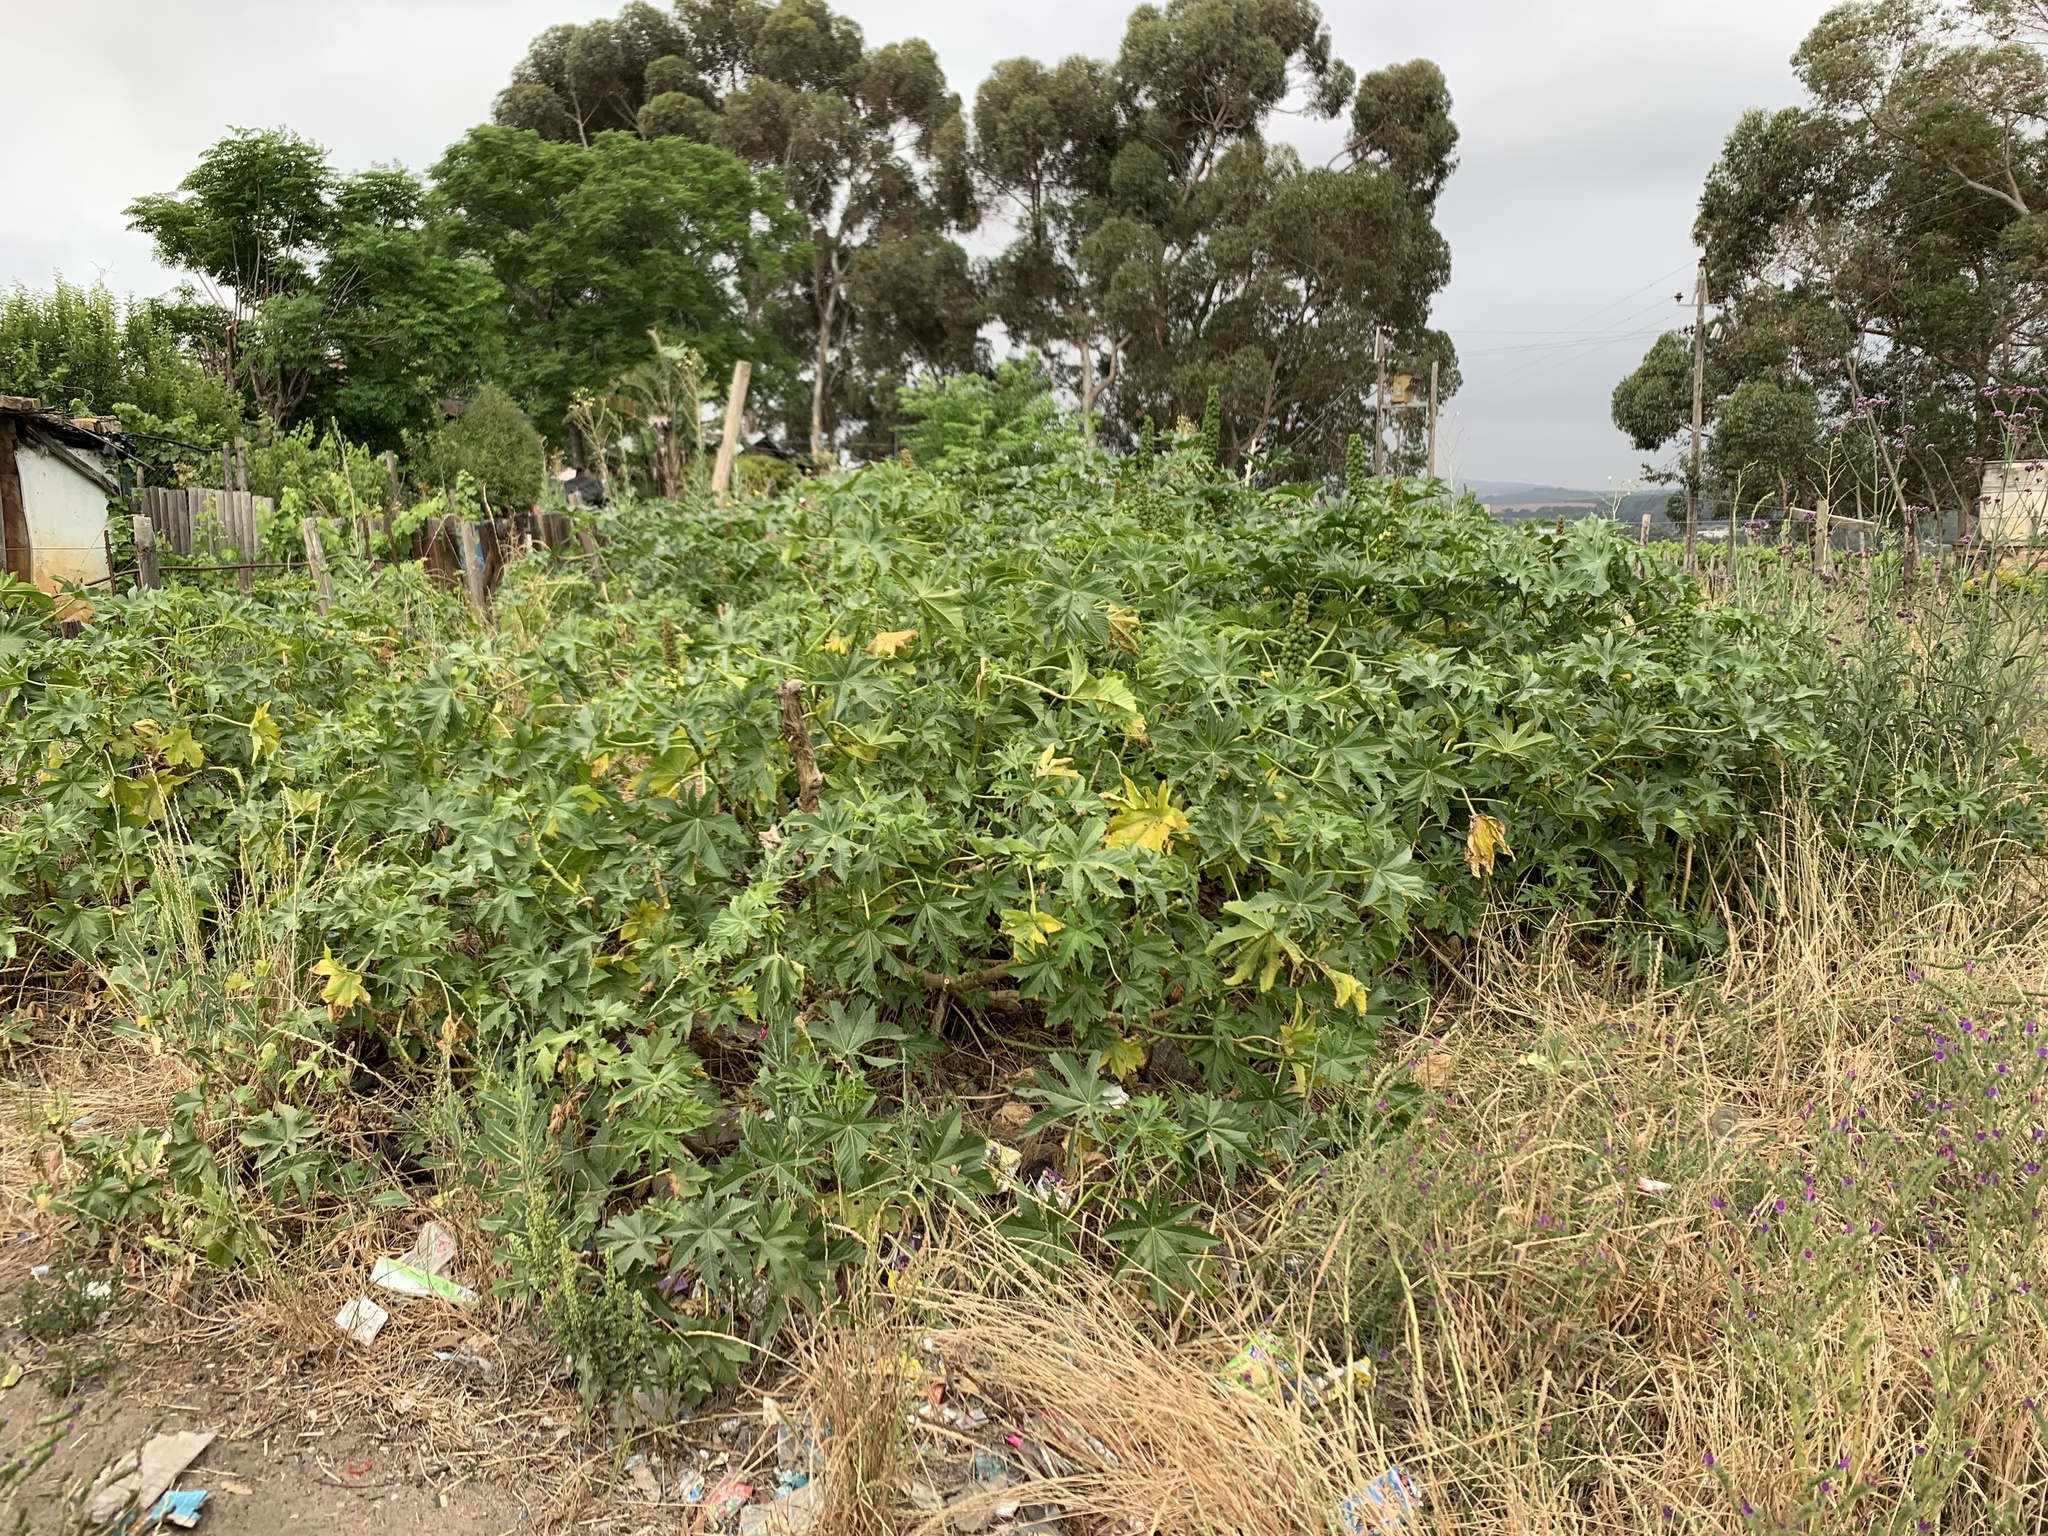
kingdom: Plantae
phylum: Tracheophyta
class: Magnoliopsida
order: Malpighiales
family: Euphorbiaceae
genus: Ricinus
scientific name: Ricinus communis
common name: Castor-oil-plant
